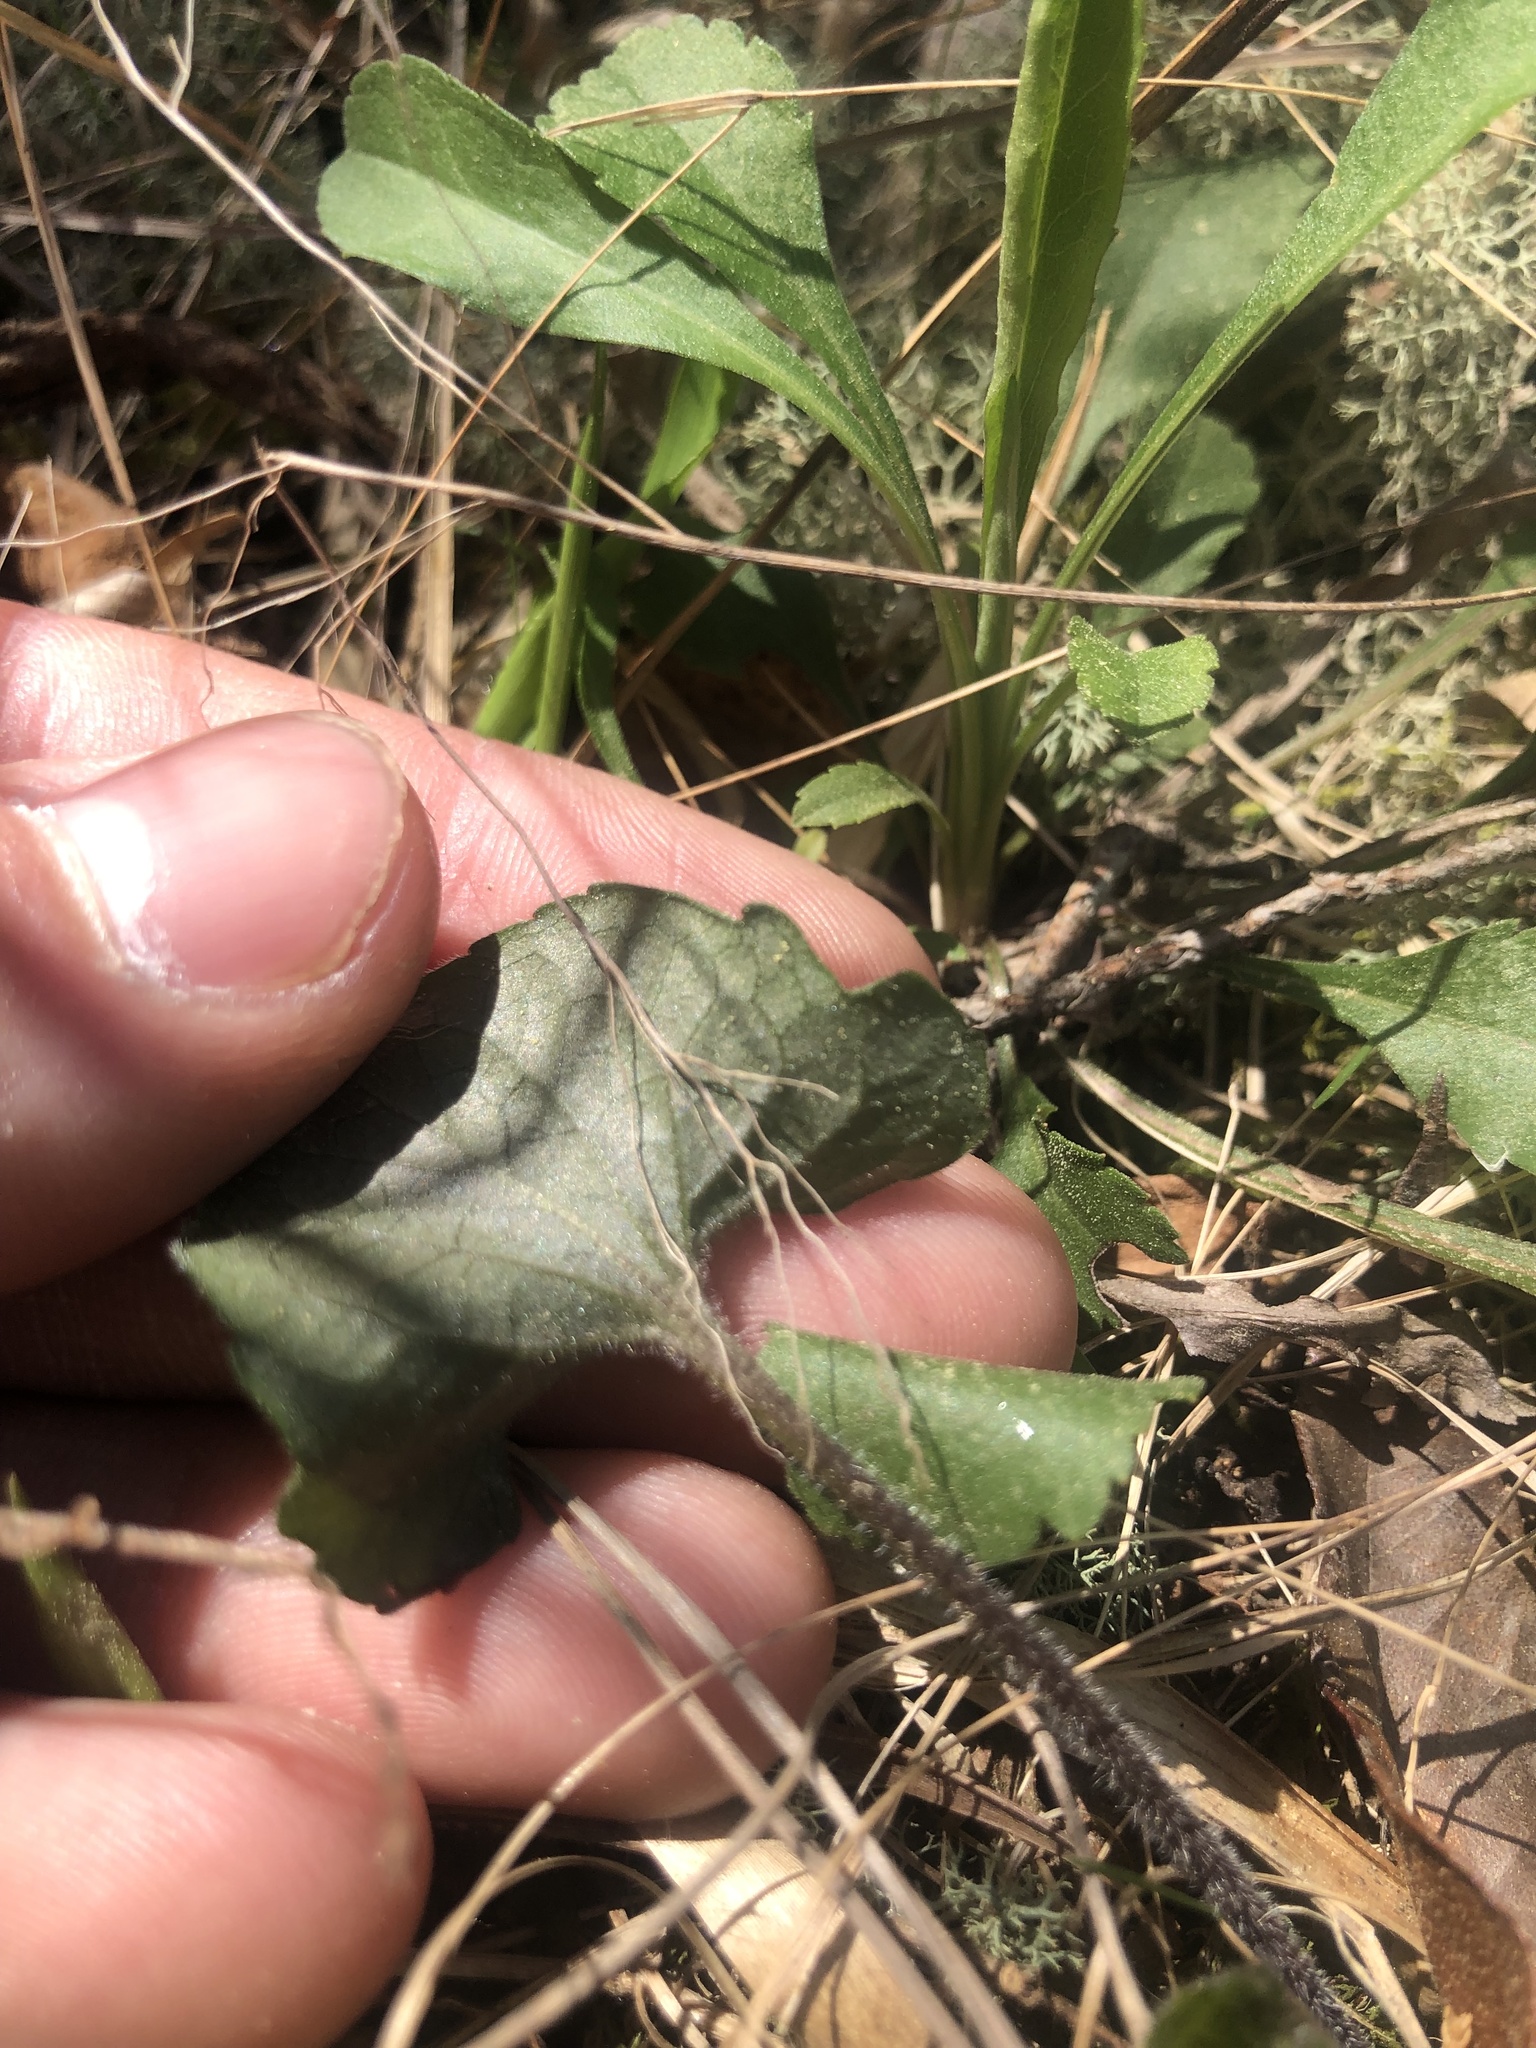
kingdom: Plantae
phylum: Tracheophyta
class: Magnoliopsida
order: Malpighiales
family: Violaceae
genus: Viola
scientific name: Viola subsinuata
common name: Wood violet
